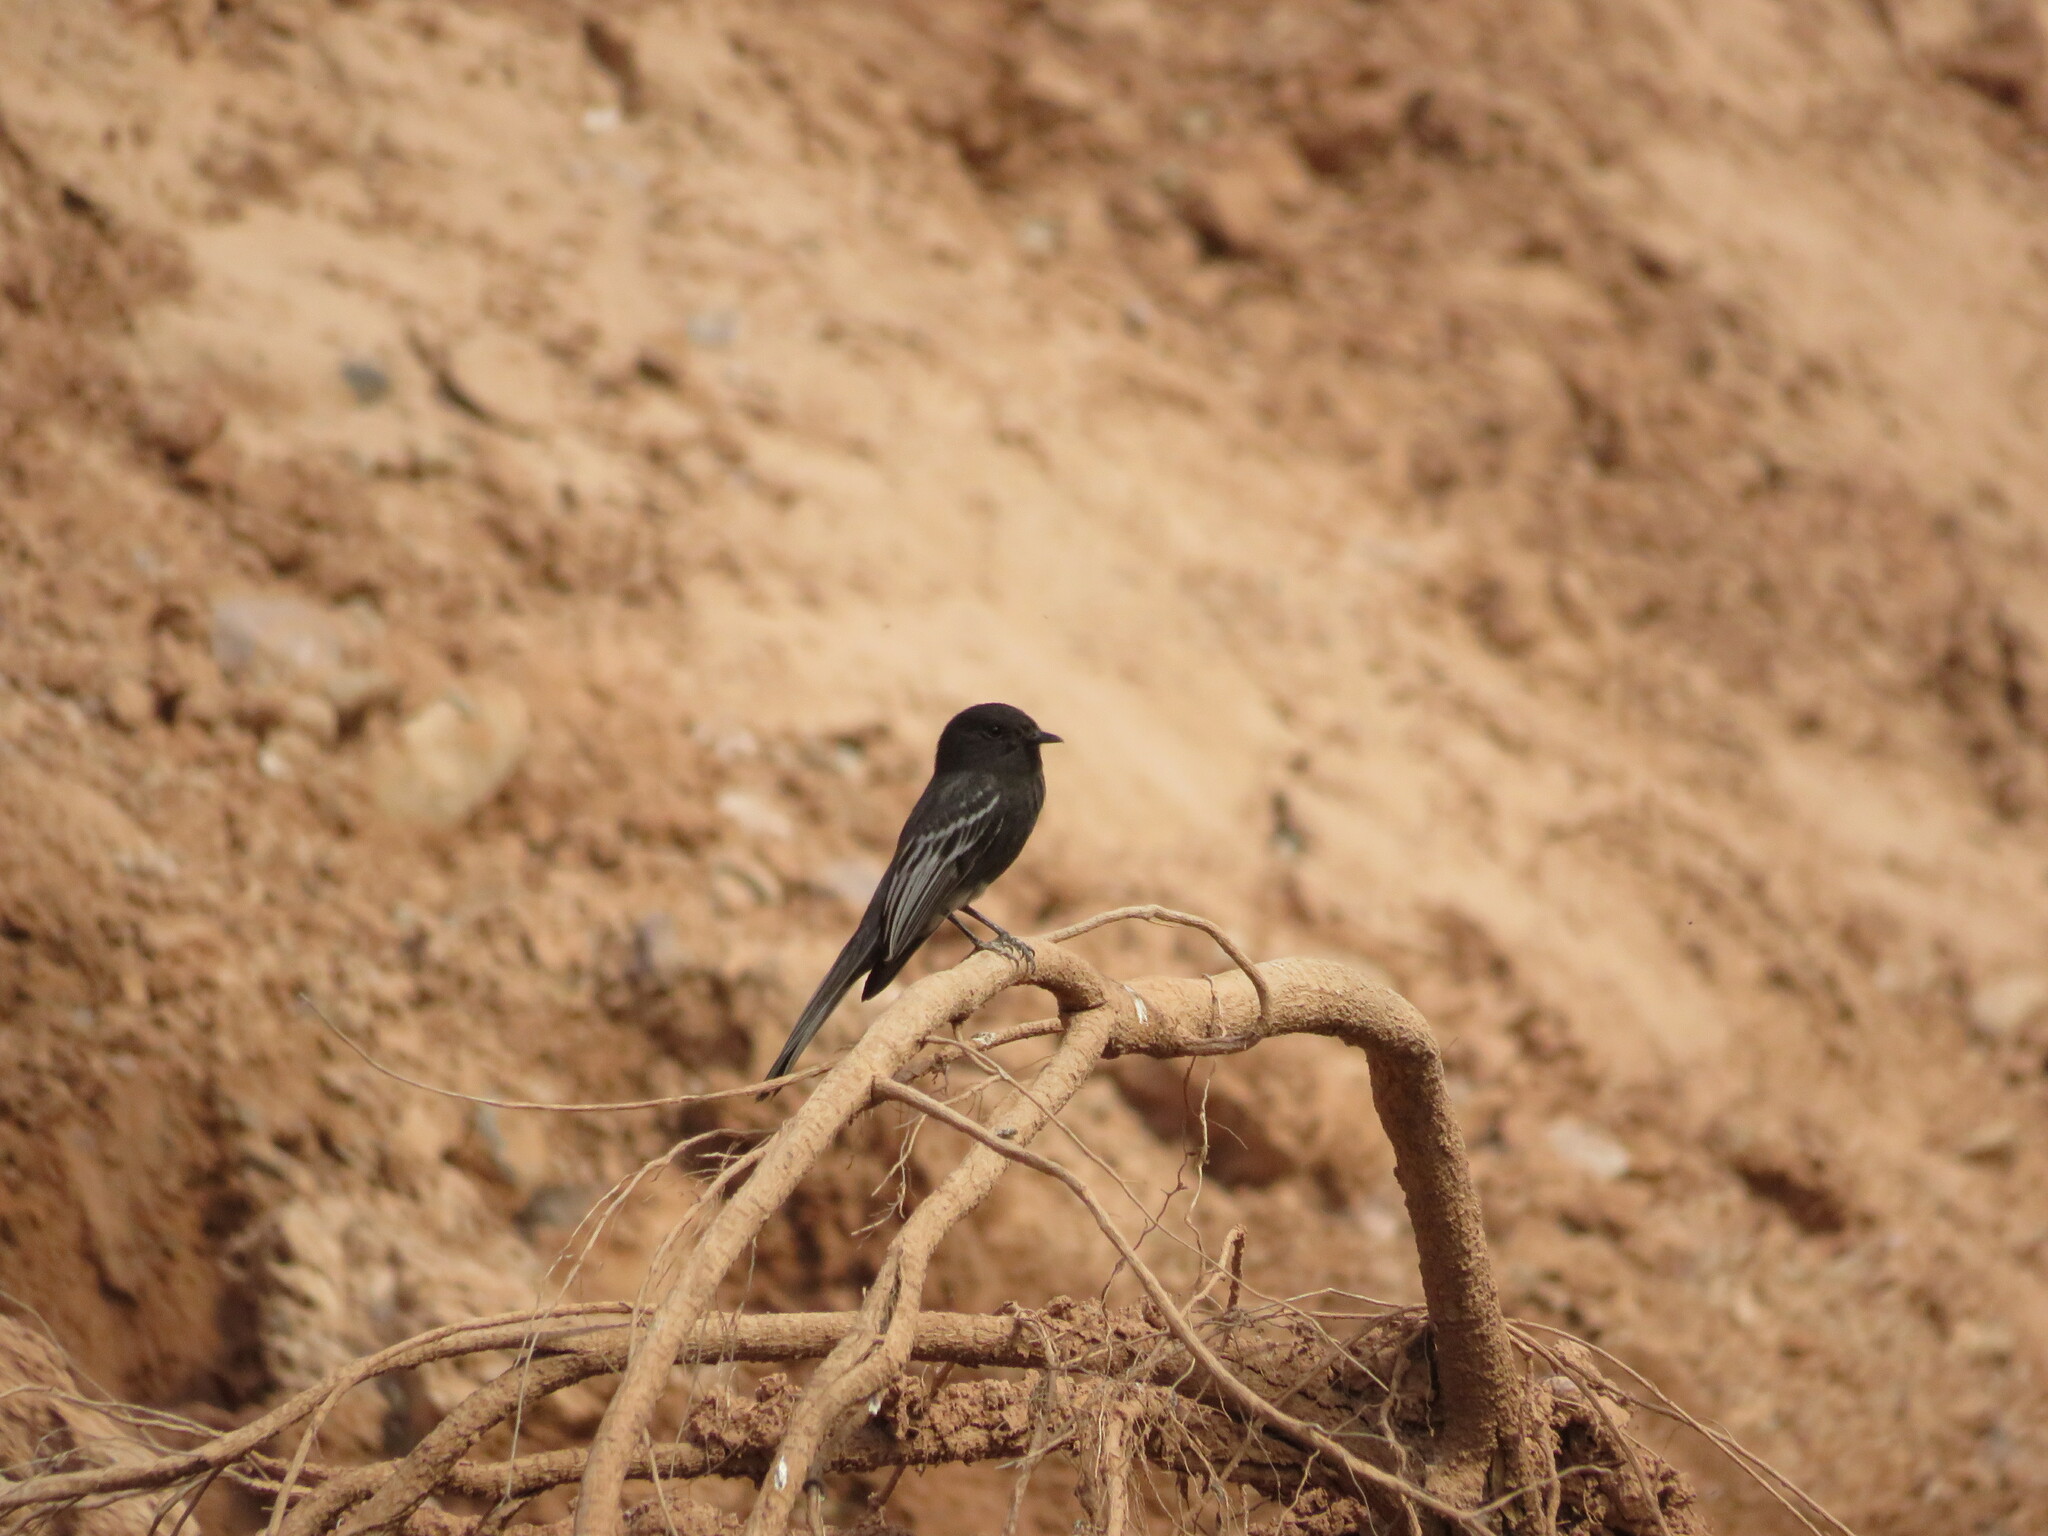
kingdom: Animalia
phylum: Chordata
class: Aves
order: Passeriformes
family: Tyrannidae
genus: Sayornis
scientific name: Sayornis nigricans
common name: Black phoebe
